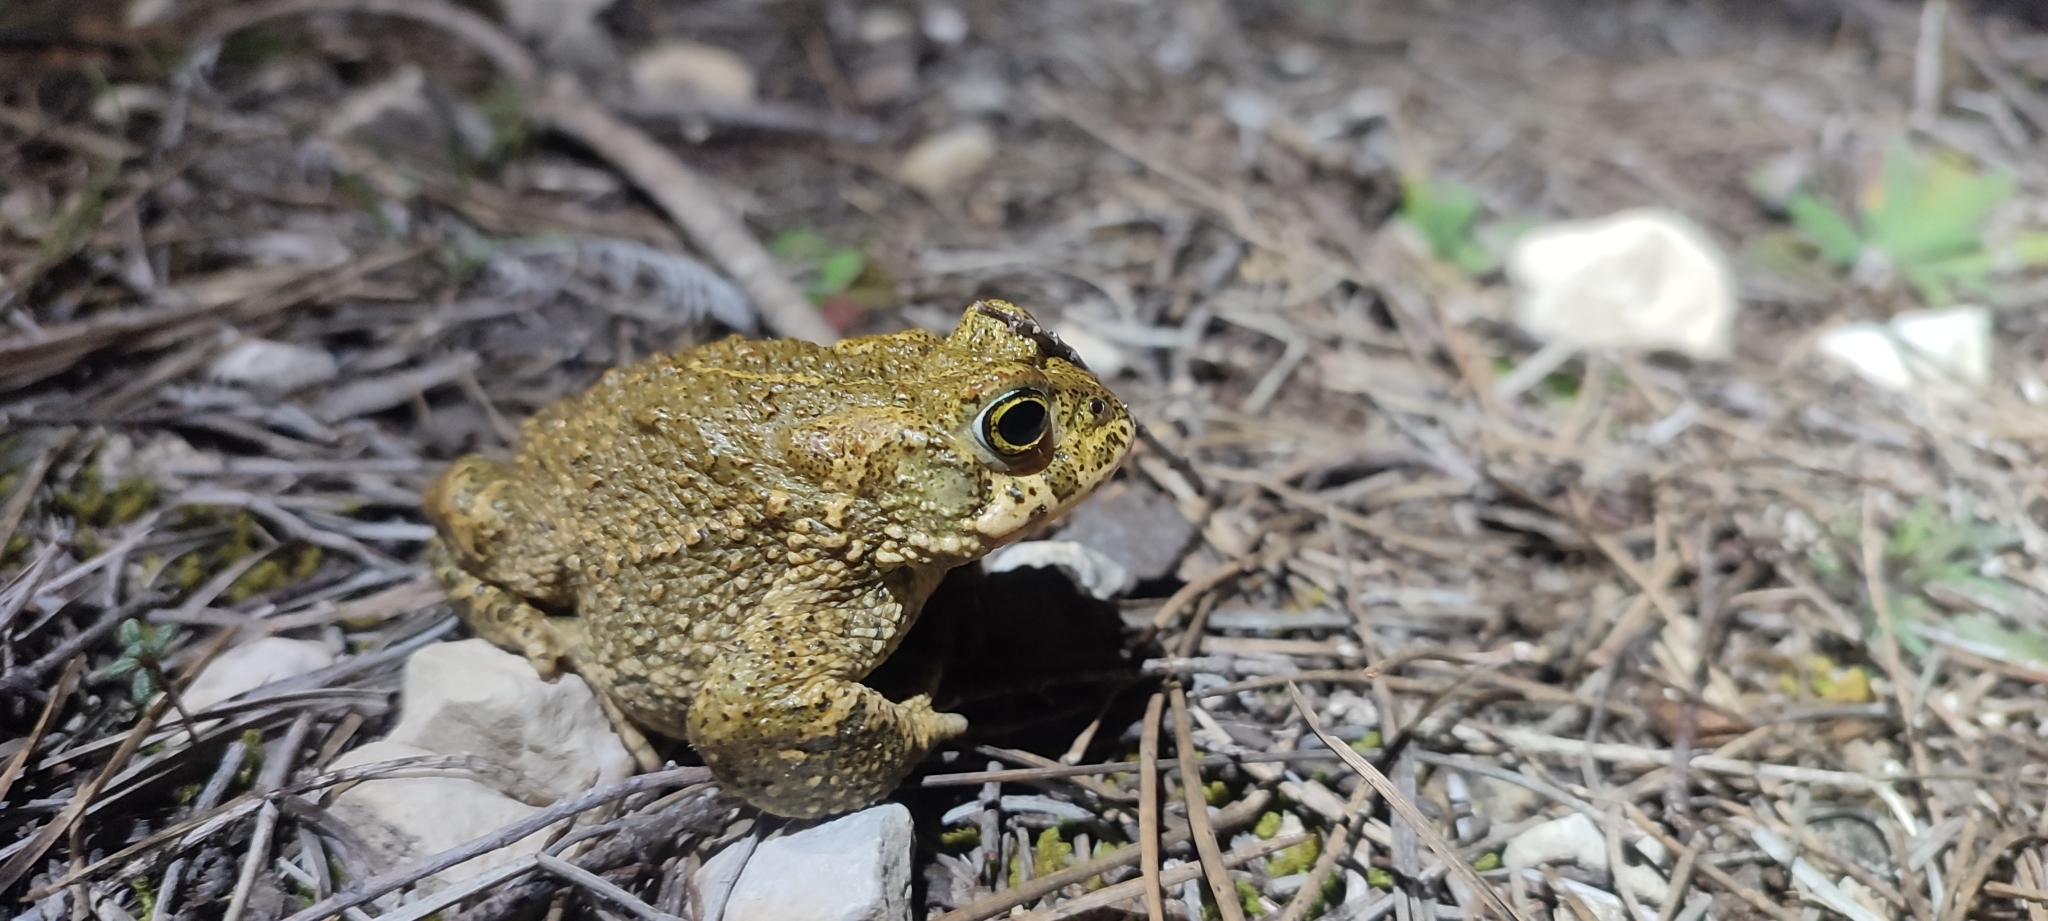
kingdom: Animalia
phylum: Chordata
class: Amphibia
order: Anura
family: Bufonidae
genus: Epidalea
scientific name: Epidalea calamita
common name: Natterjack toad
